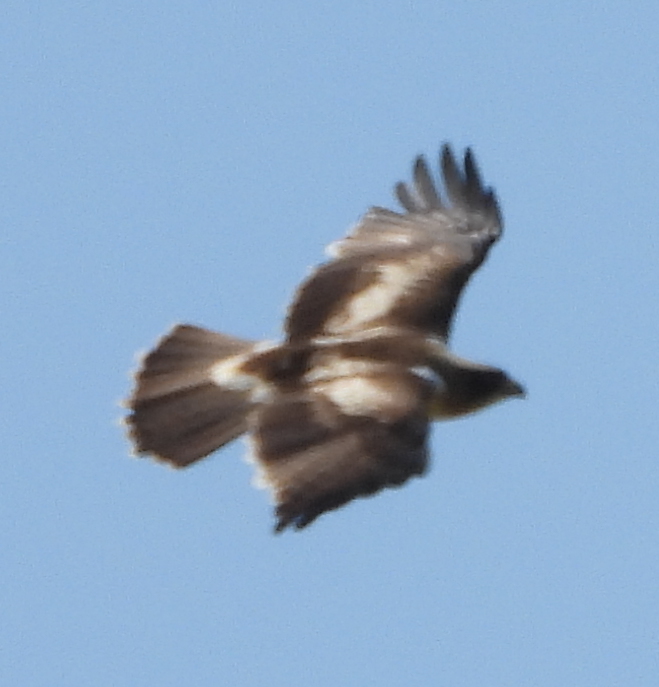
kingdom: Animalia
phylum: Chordata
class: Aves
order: Accipitriformes
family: Accipitridae
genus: Hieraaetus
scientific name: Hieraaetus pennatus
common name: Booted eagle
